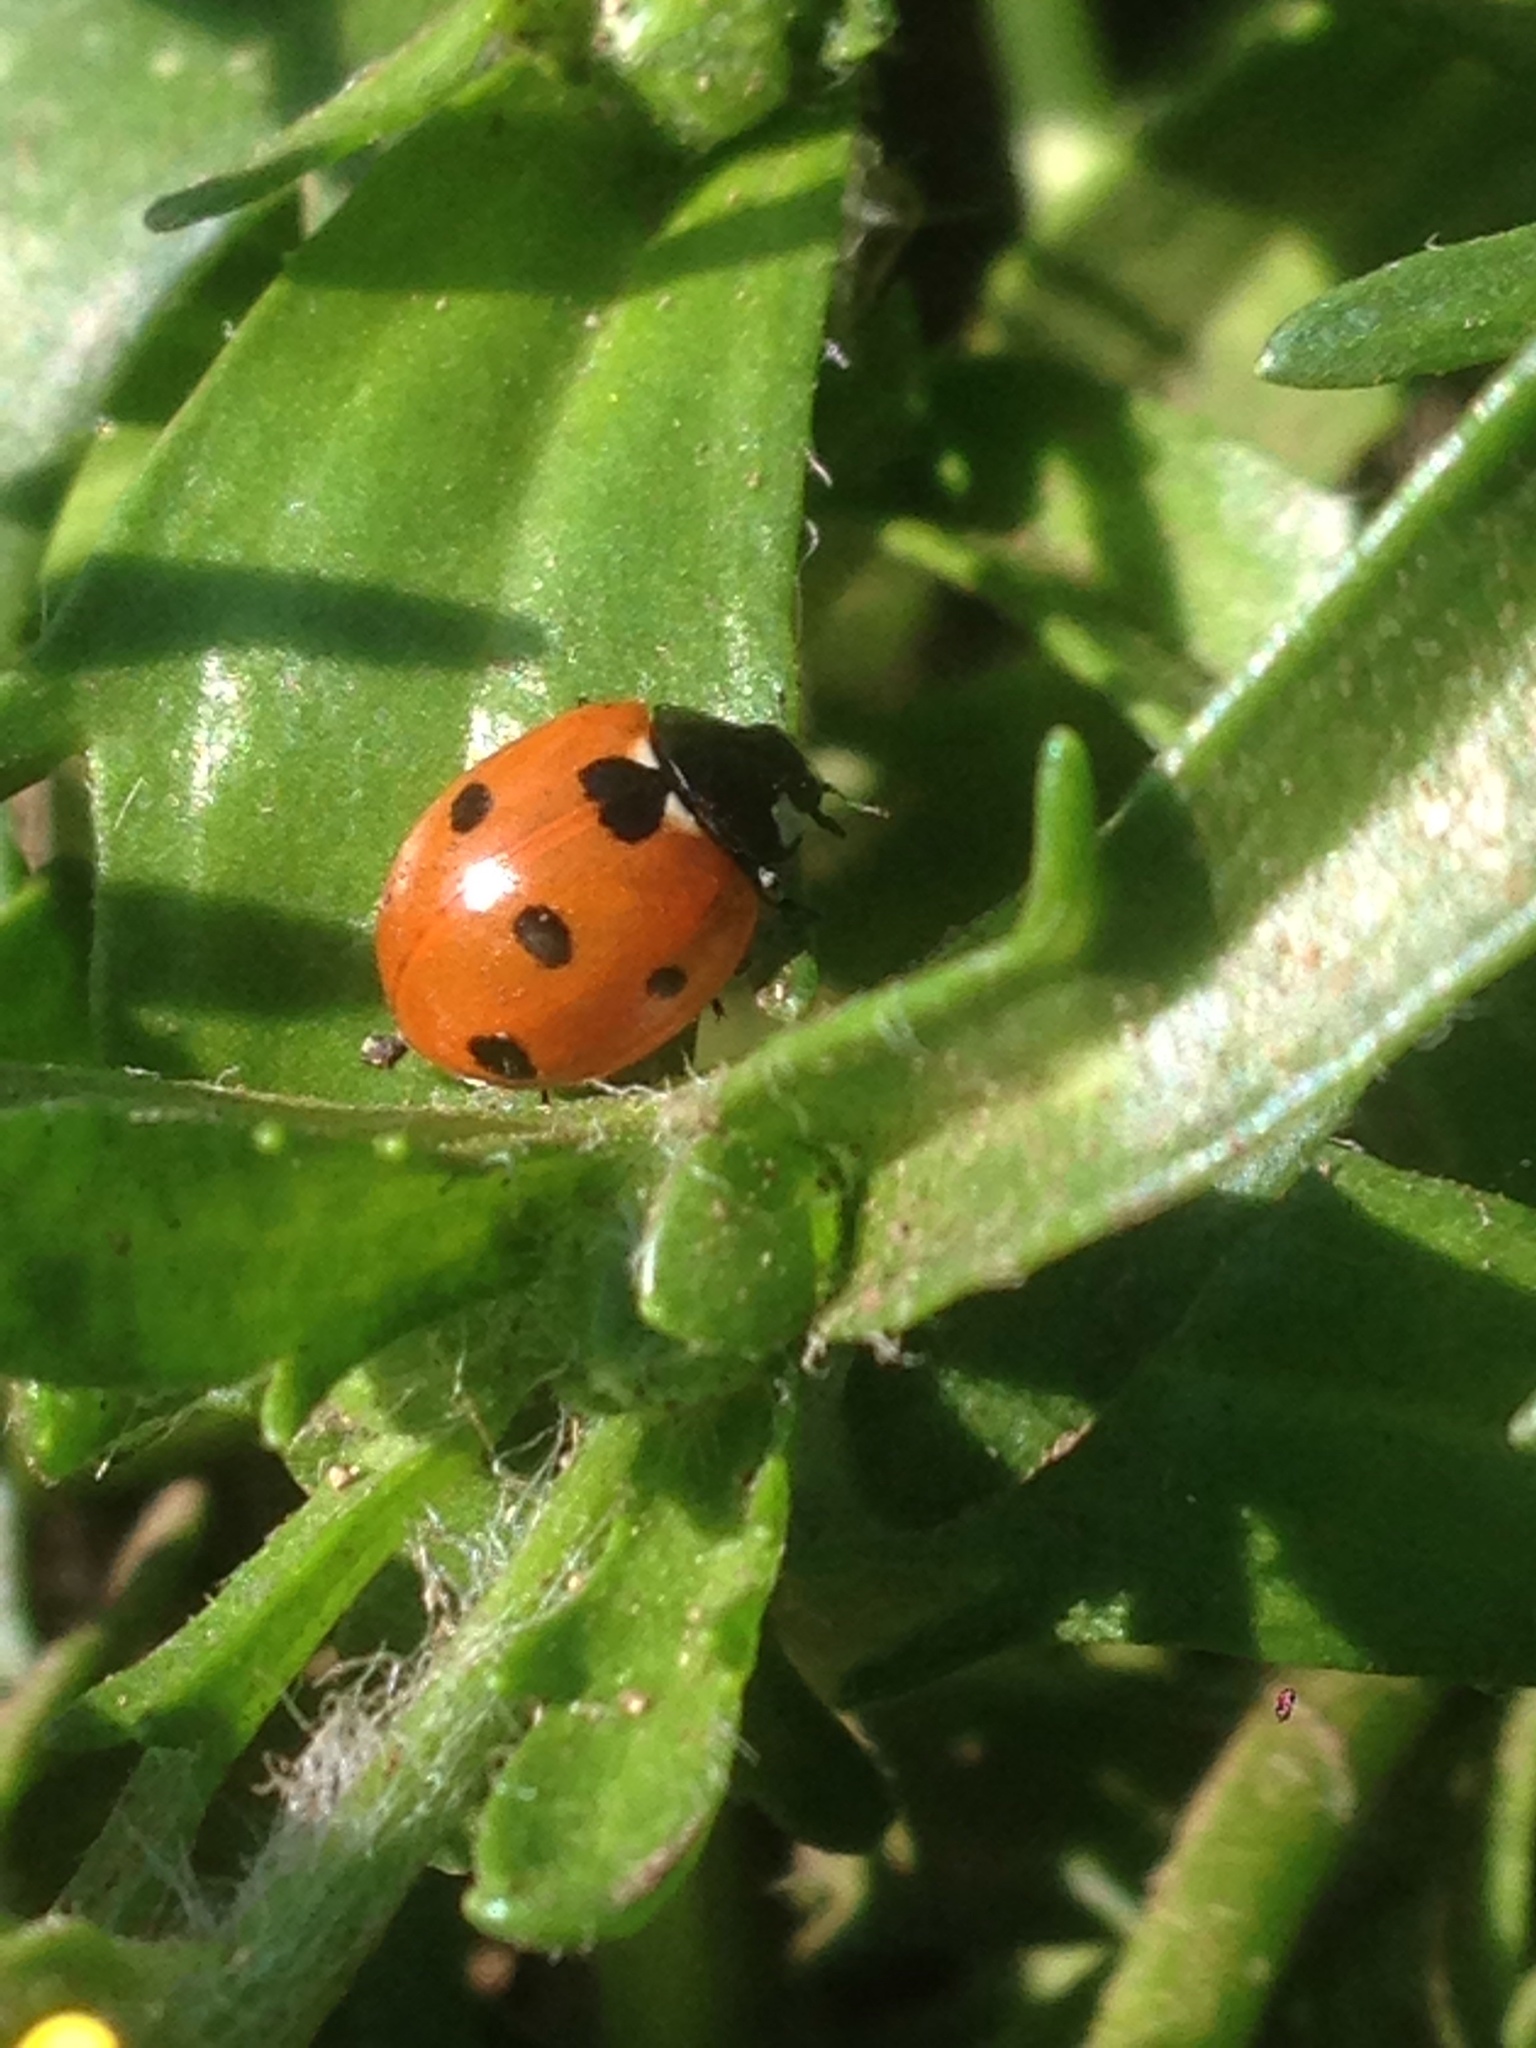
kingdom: Animalia
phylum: Arthropoda
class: Insecta
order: Coleoptera
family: Coccinellidae
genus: Coccinella
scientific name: Coccinella septempunctata
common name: Sevenspotted lady beetle
